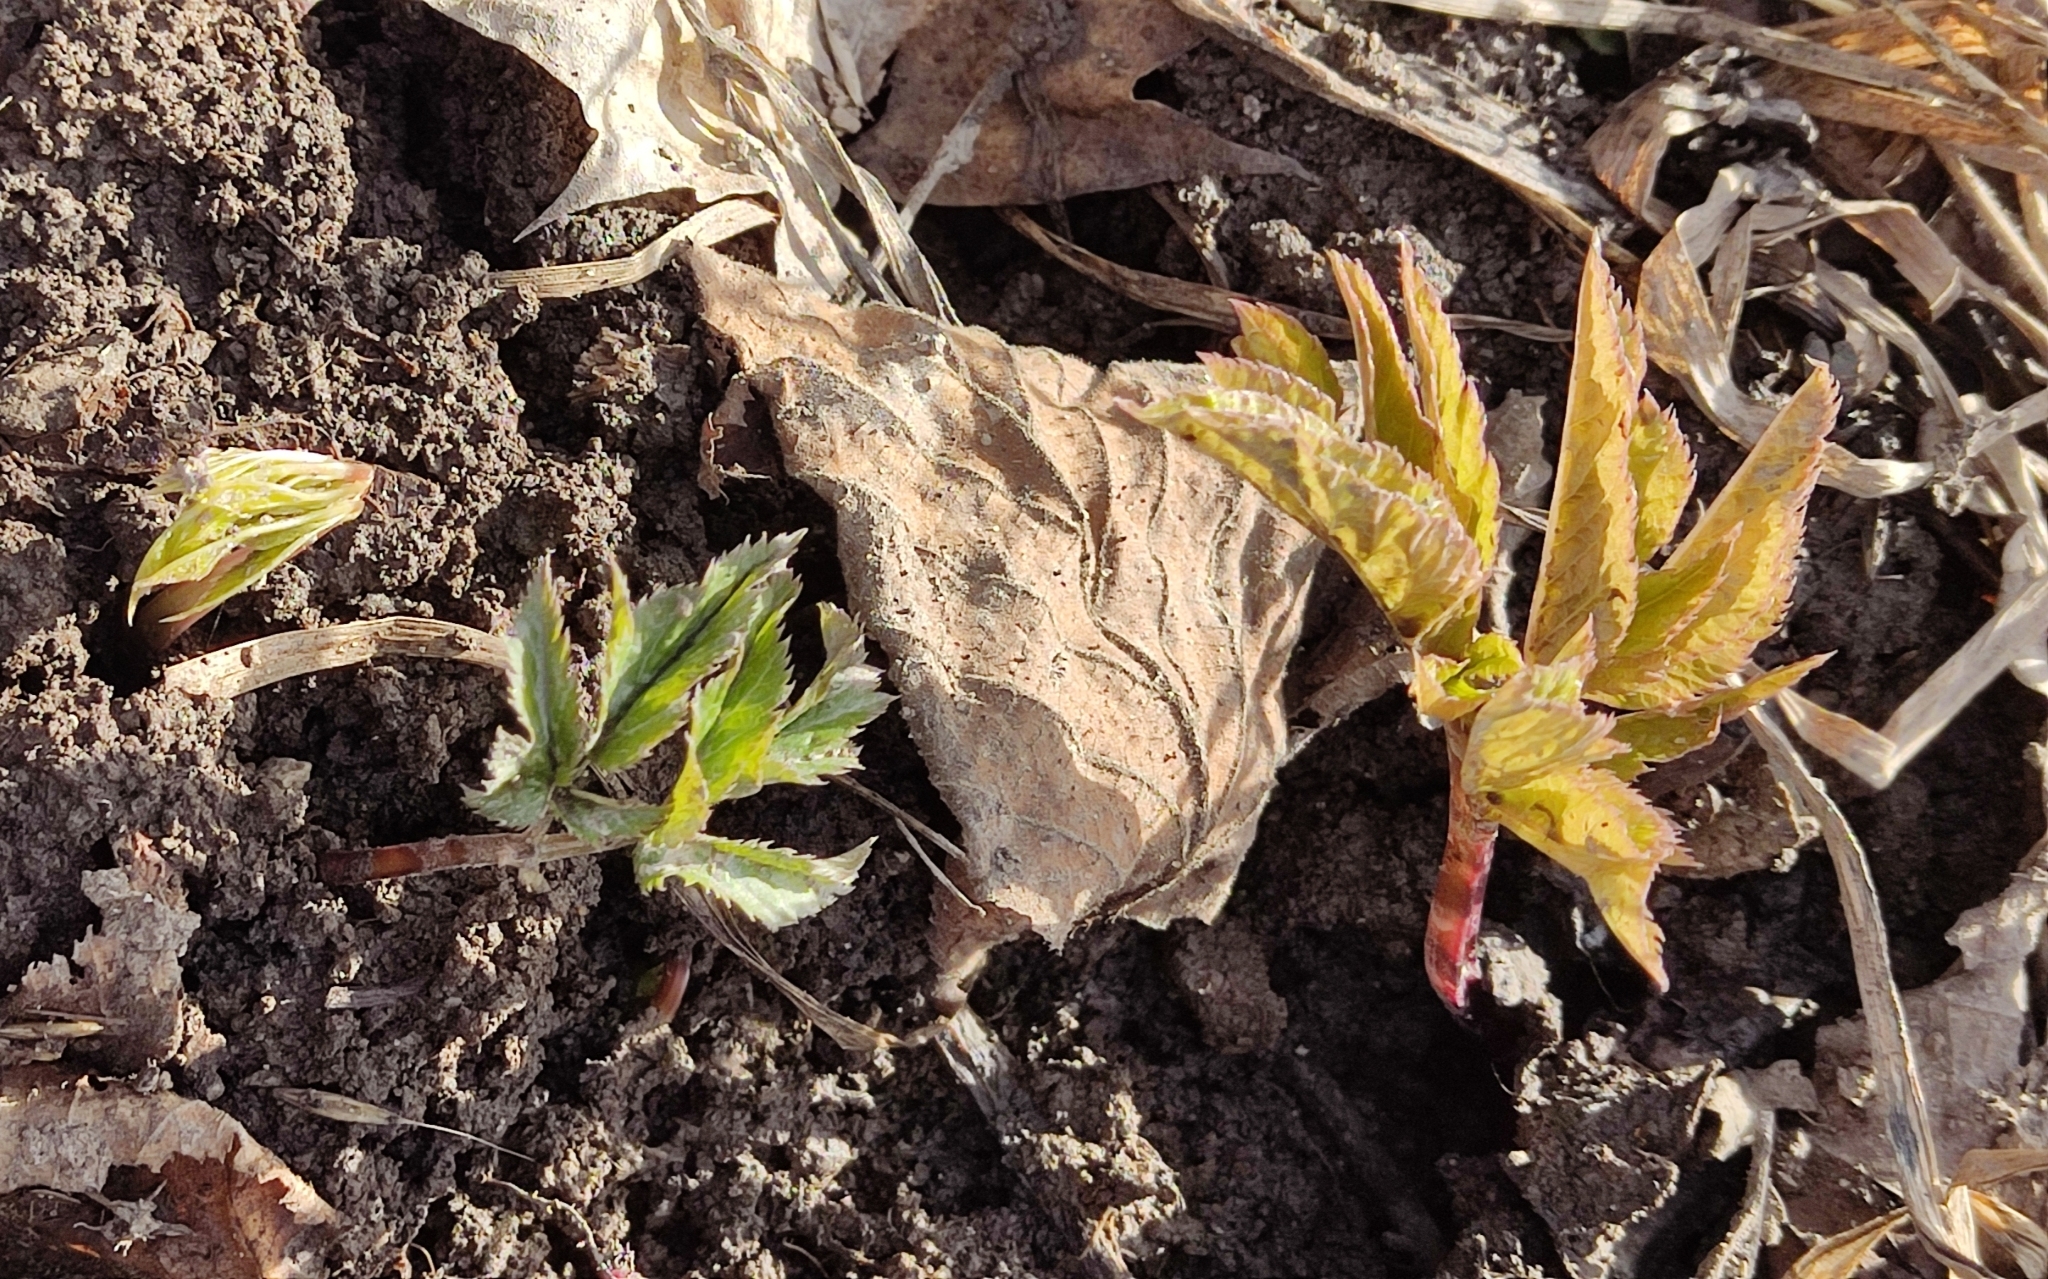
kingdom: Plantae
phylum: Tracheophyta
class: Magnoliopsida
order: Apiales
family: Apiaceae
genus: Aegopodium
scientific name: Aegopodium podagraria
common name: Ground-elder
